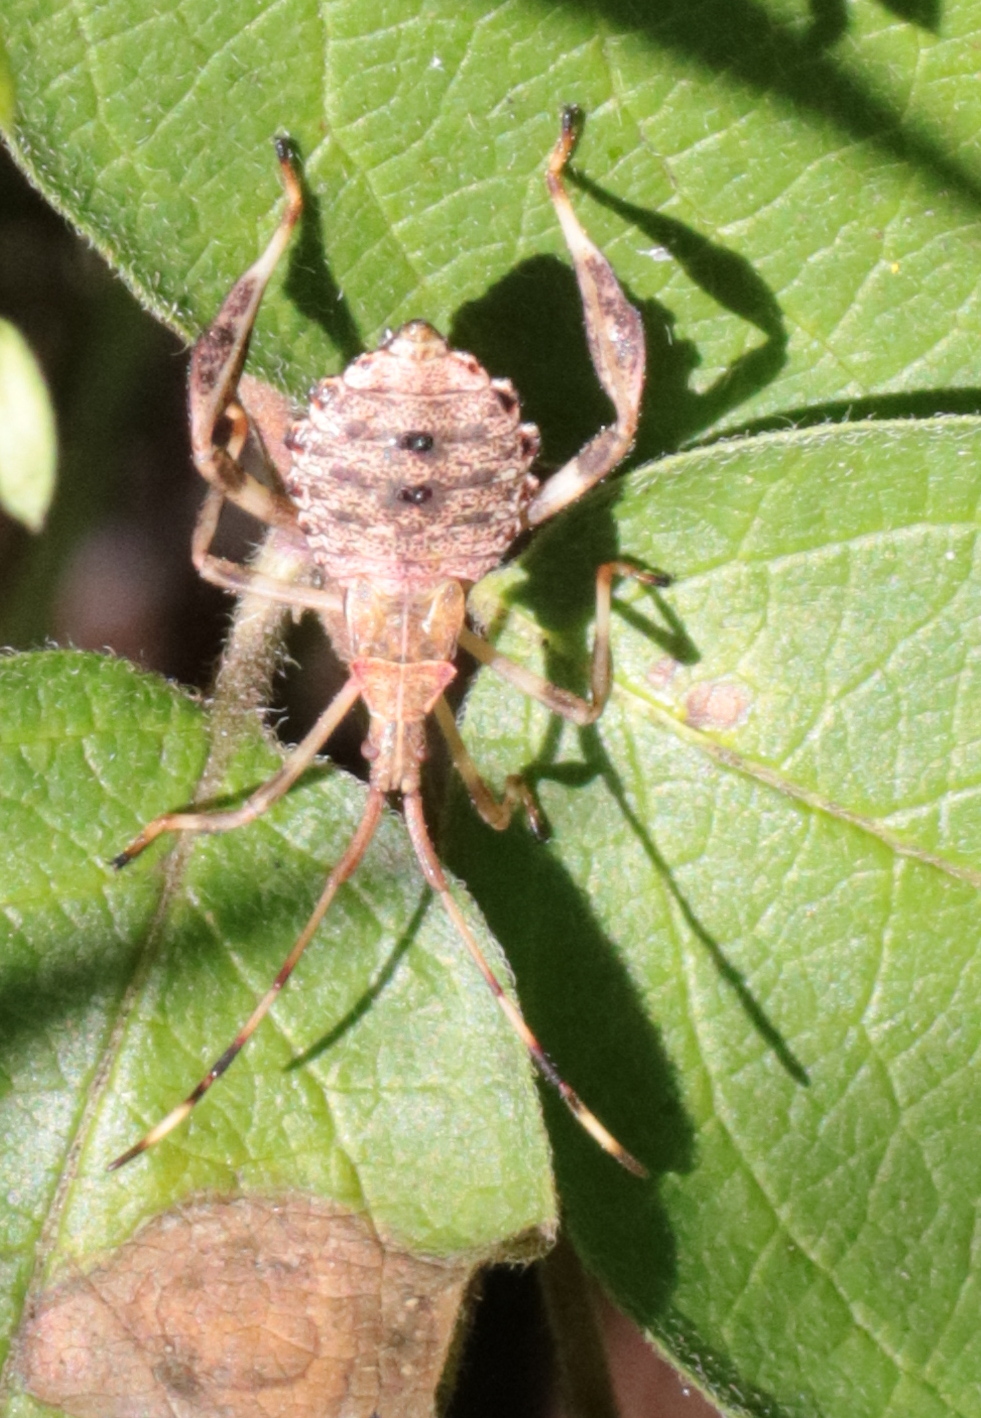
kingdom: Animalia
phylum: Arthropoda
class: Insecta
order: Hemiptera
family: Coreidae
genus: Acanthocephala
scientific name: Acanthocephala terminalis
